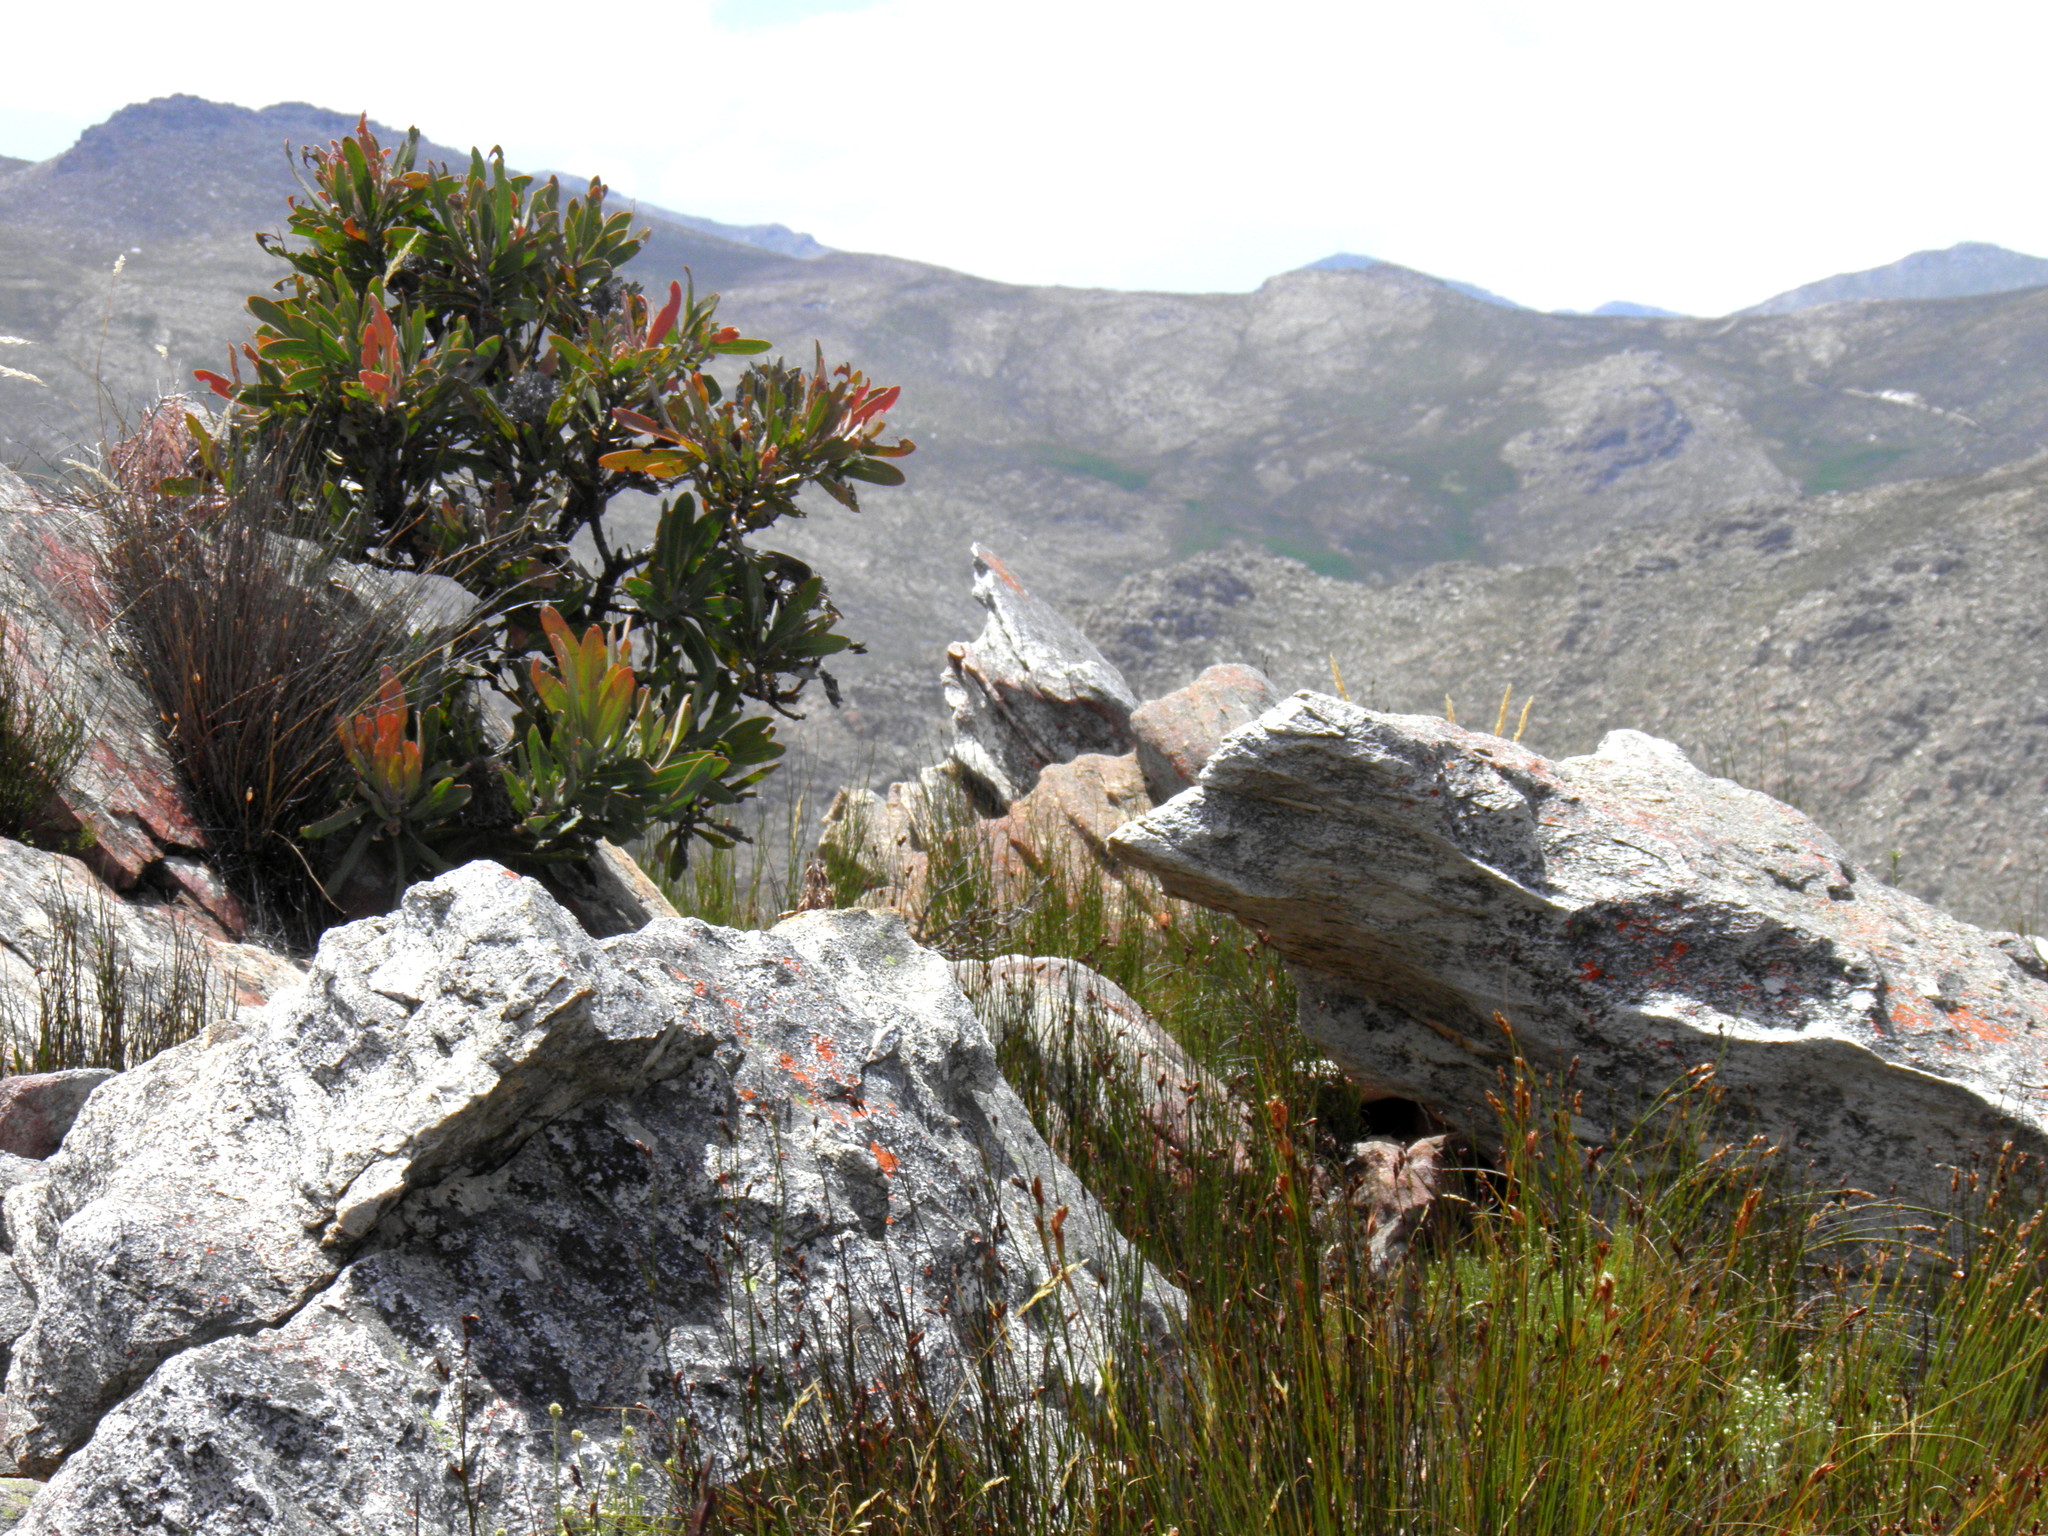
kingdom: Plantae
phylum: Tracheophyta
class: Magnoliopsida
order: Proteales
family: Proteaceae
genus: Protea
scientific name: Protea lorifolia
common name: Strap-leaved protea
